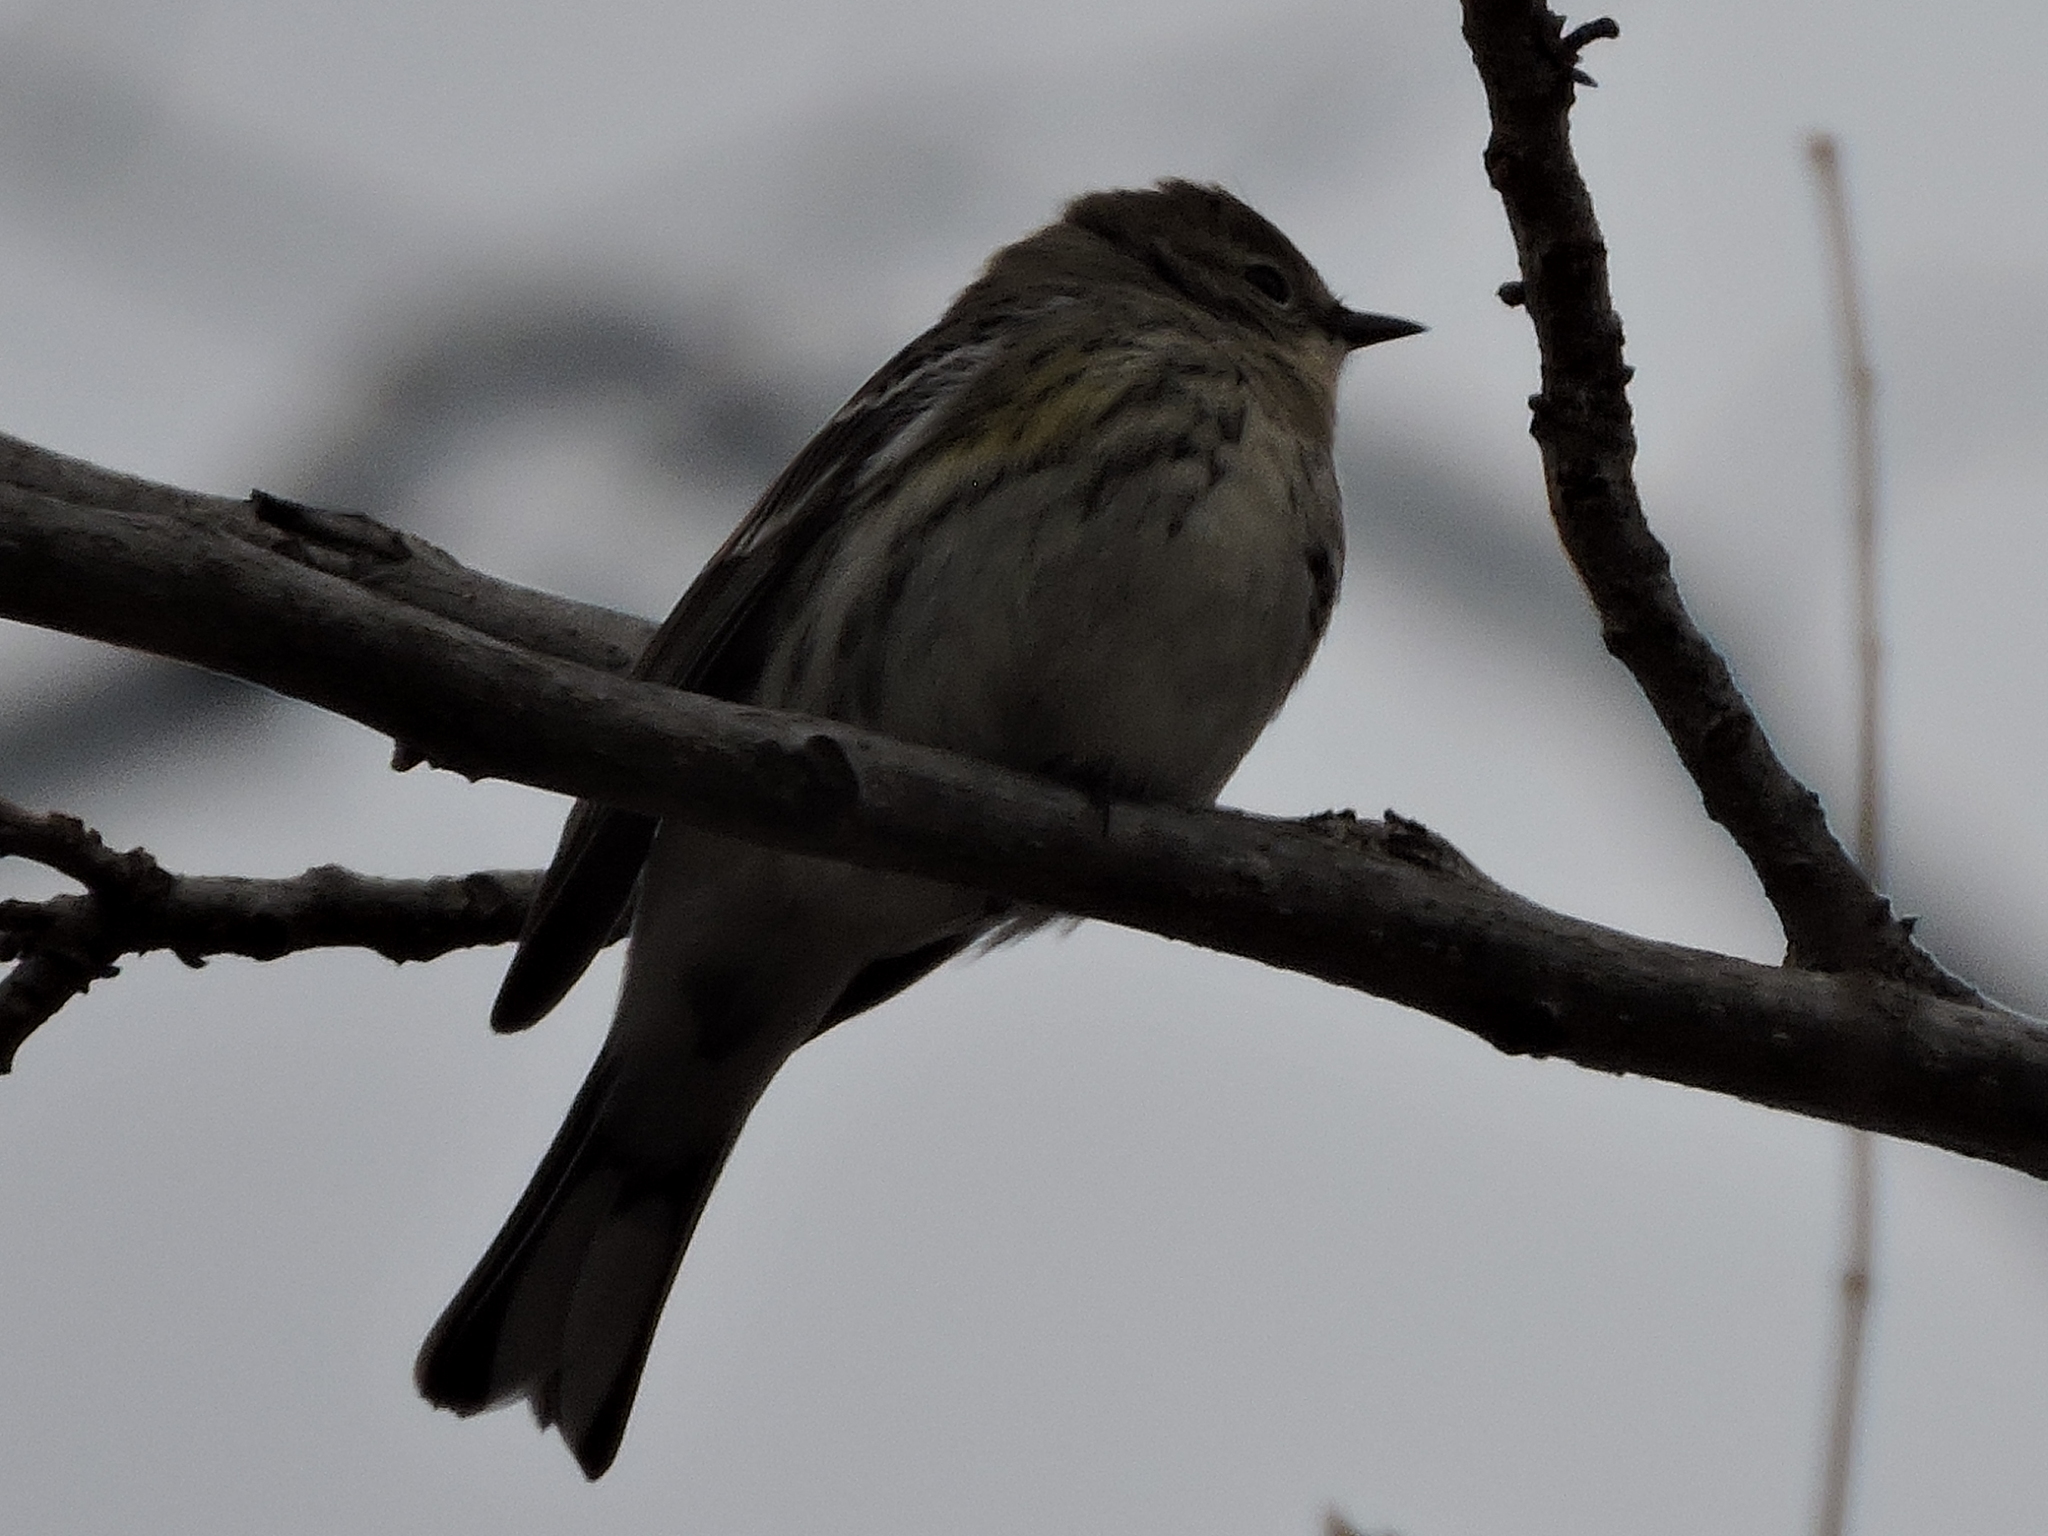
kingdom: Animalia
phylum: Chordata
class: Aves
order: Passeriformes
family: Parulidae
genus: Setophaga
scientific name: Setophaga coronata
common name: Myrtle warbler
